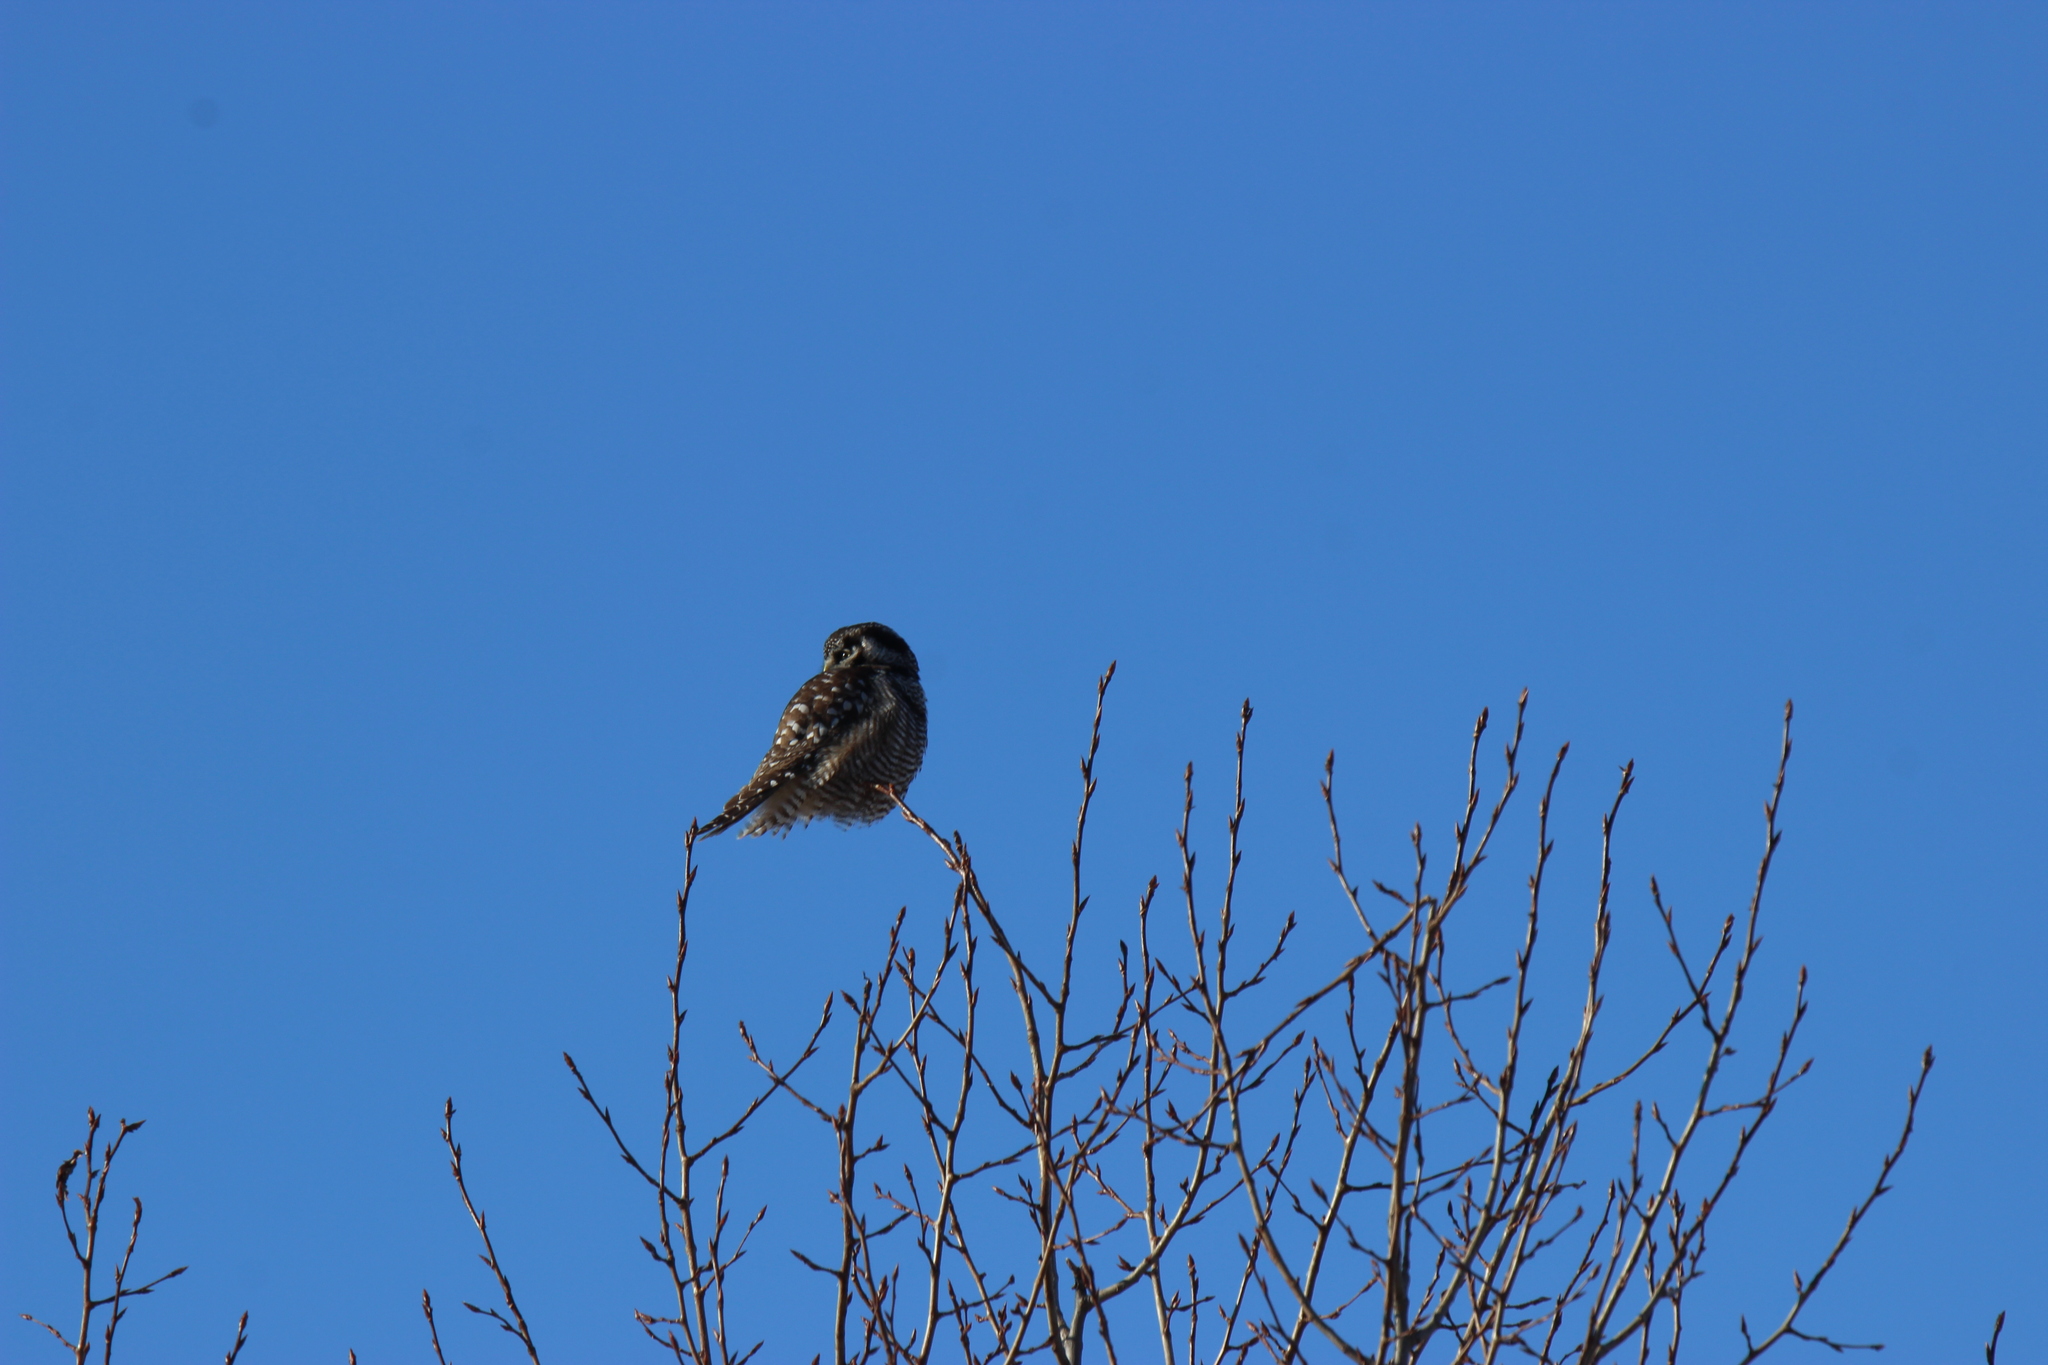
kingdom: Animalia
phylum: Chordata
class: Aves
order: Strigiformes
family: Strigidae
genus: Surnia
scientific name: Surnia ulula
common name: Northern hawk-owl
